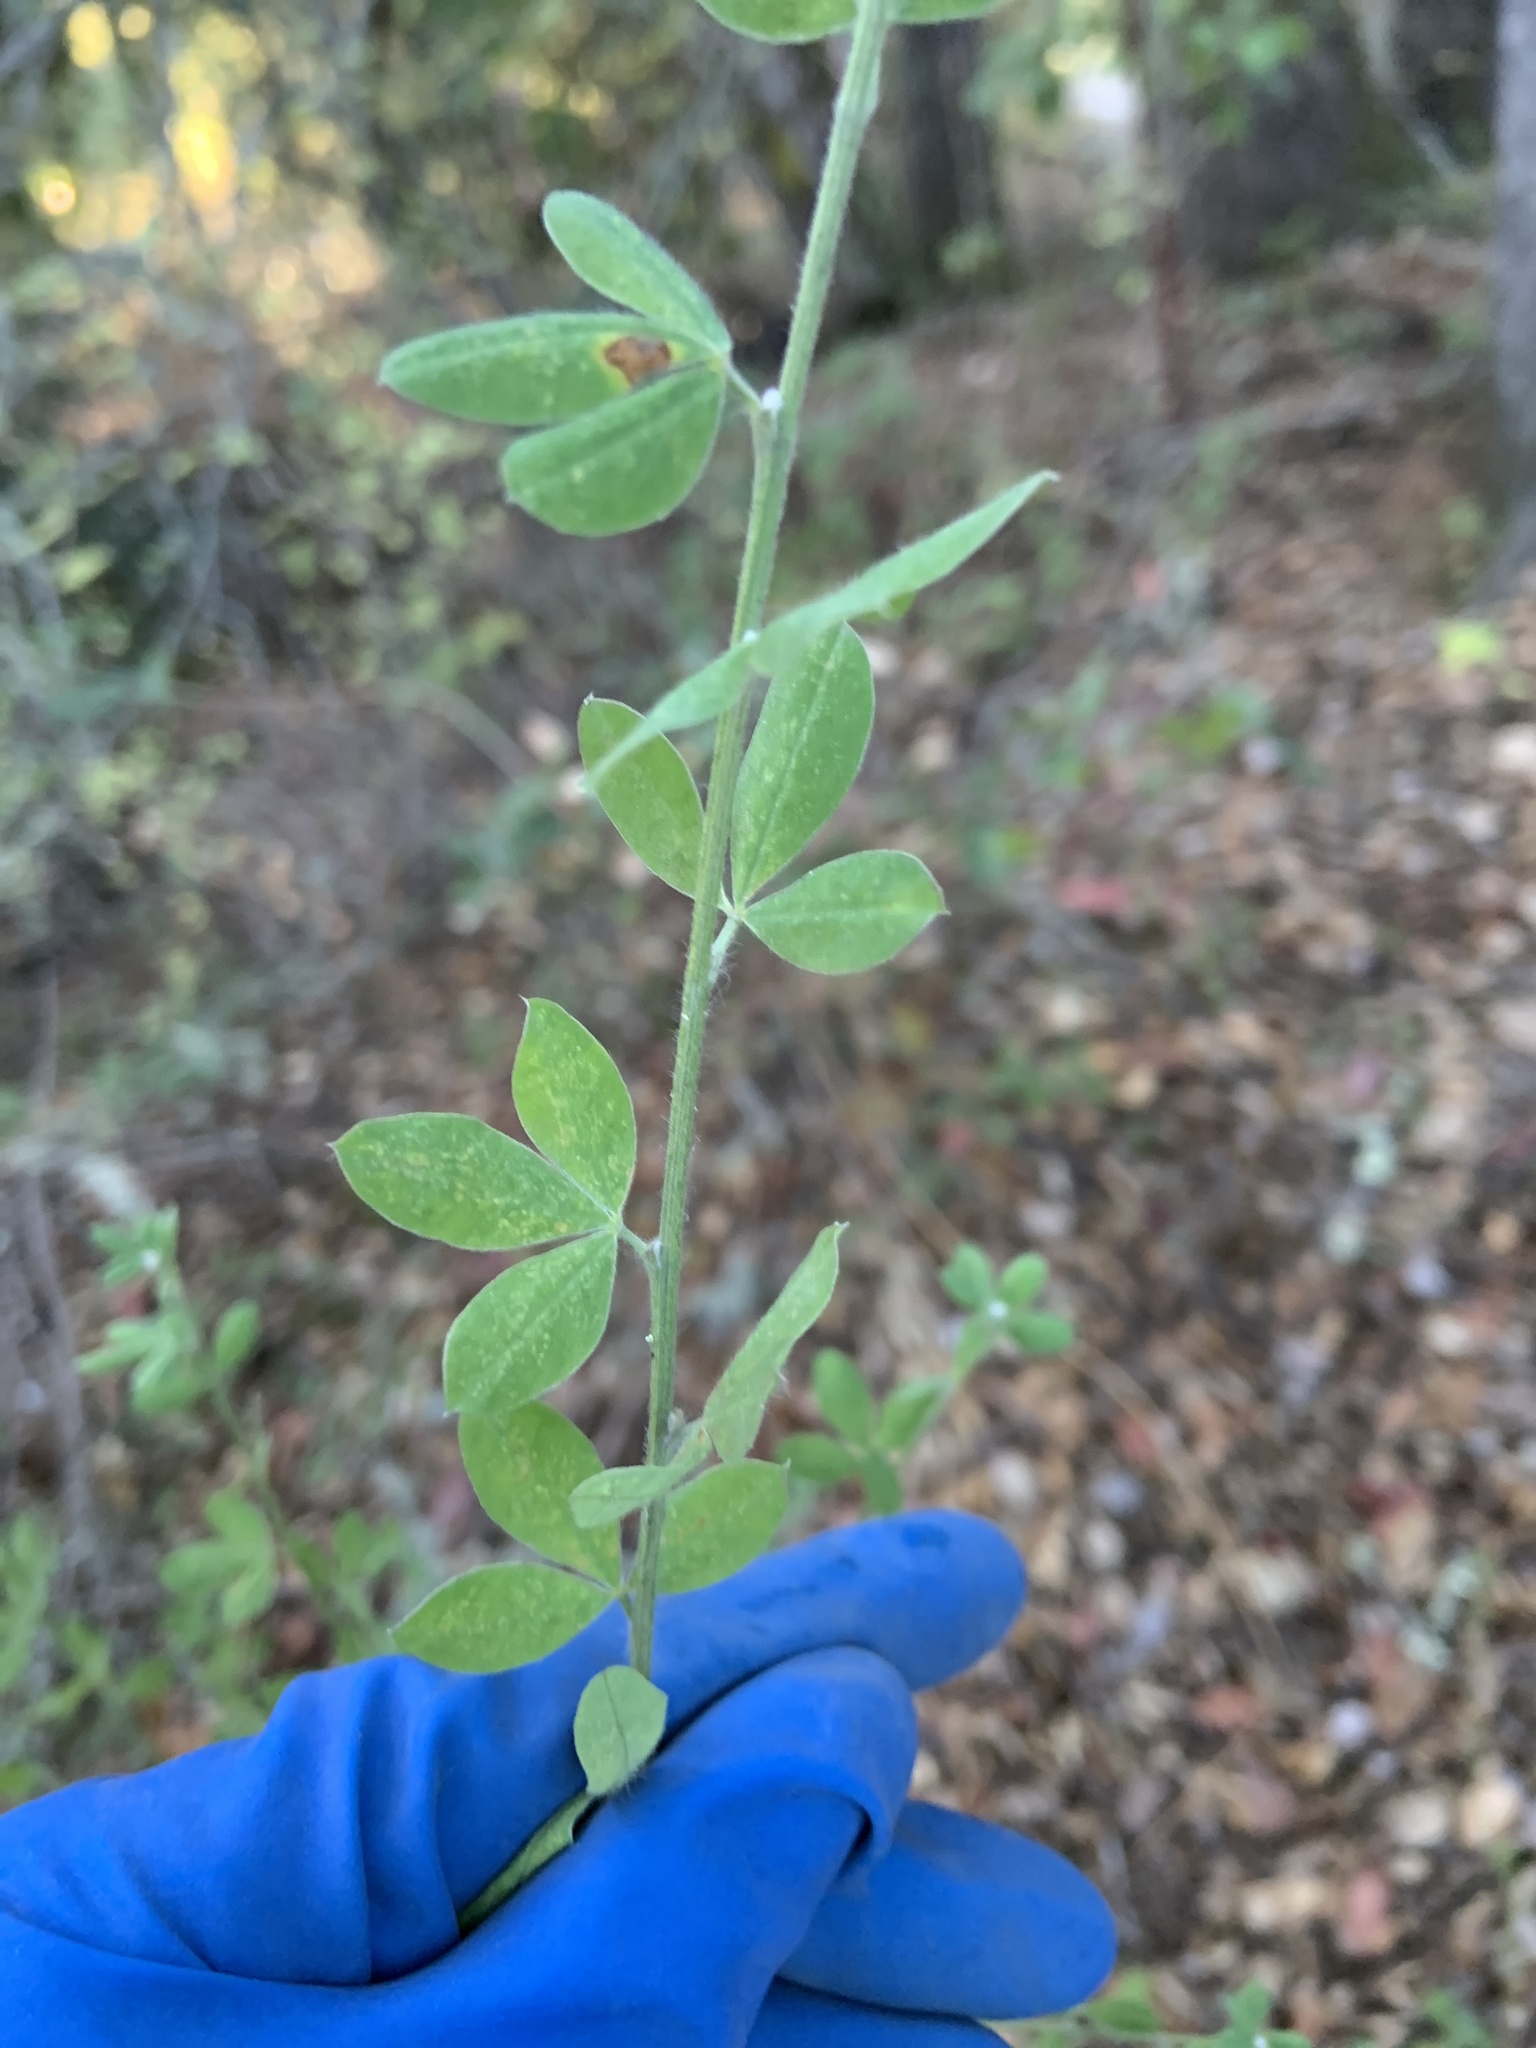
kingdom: Plantae
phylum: Tracheophyta
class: Magnoliopsida
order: Fabales
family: Fabaceae
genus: Genista
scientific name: Genista monspessulana
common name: Montpellier broom
